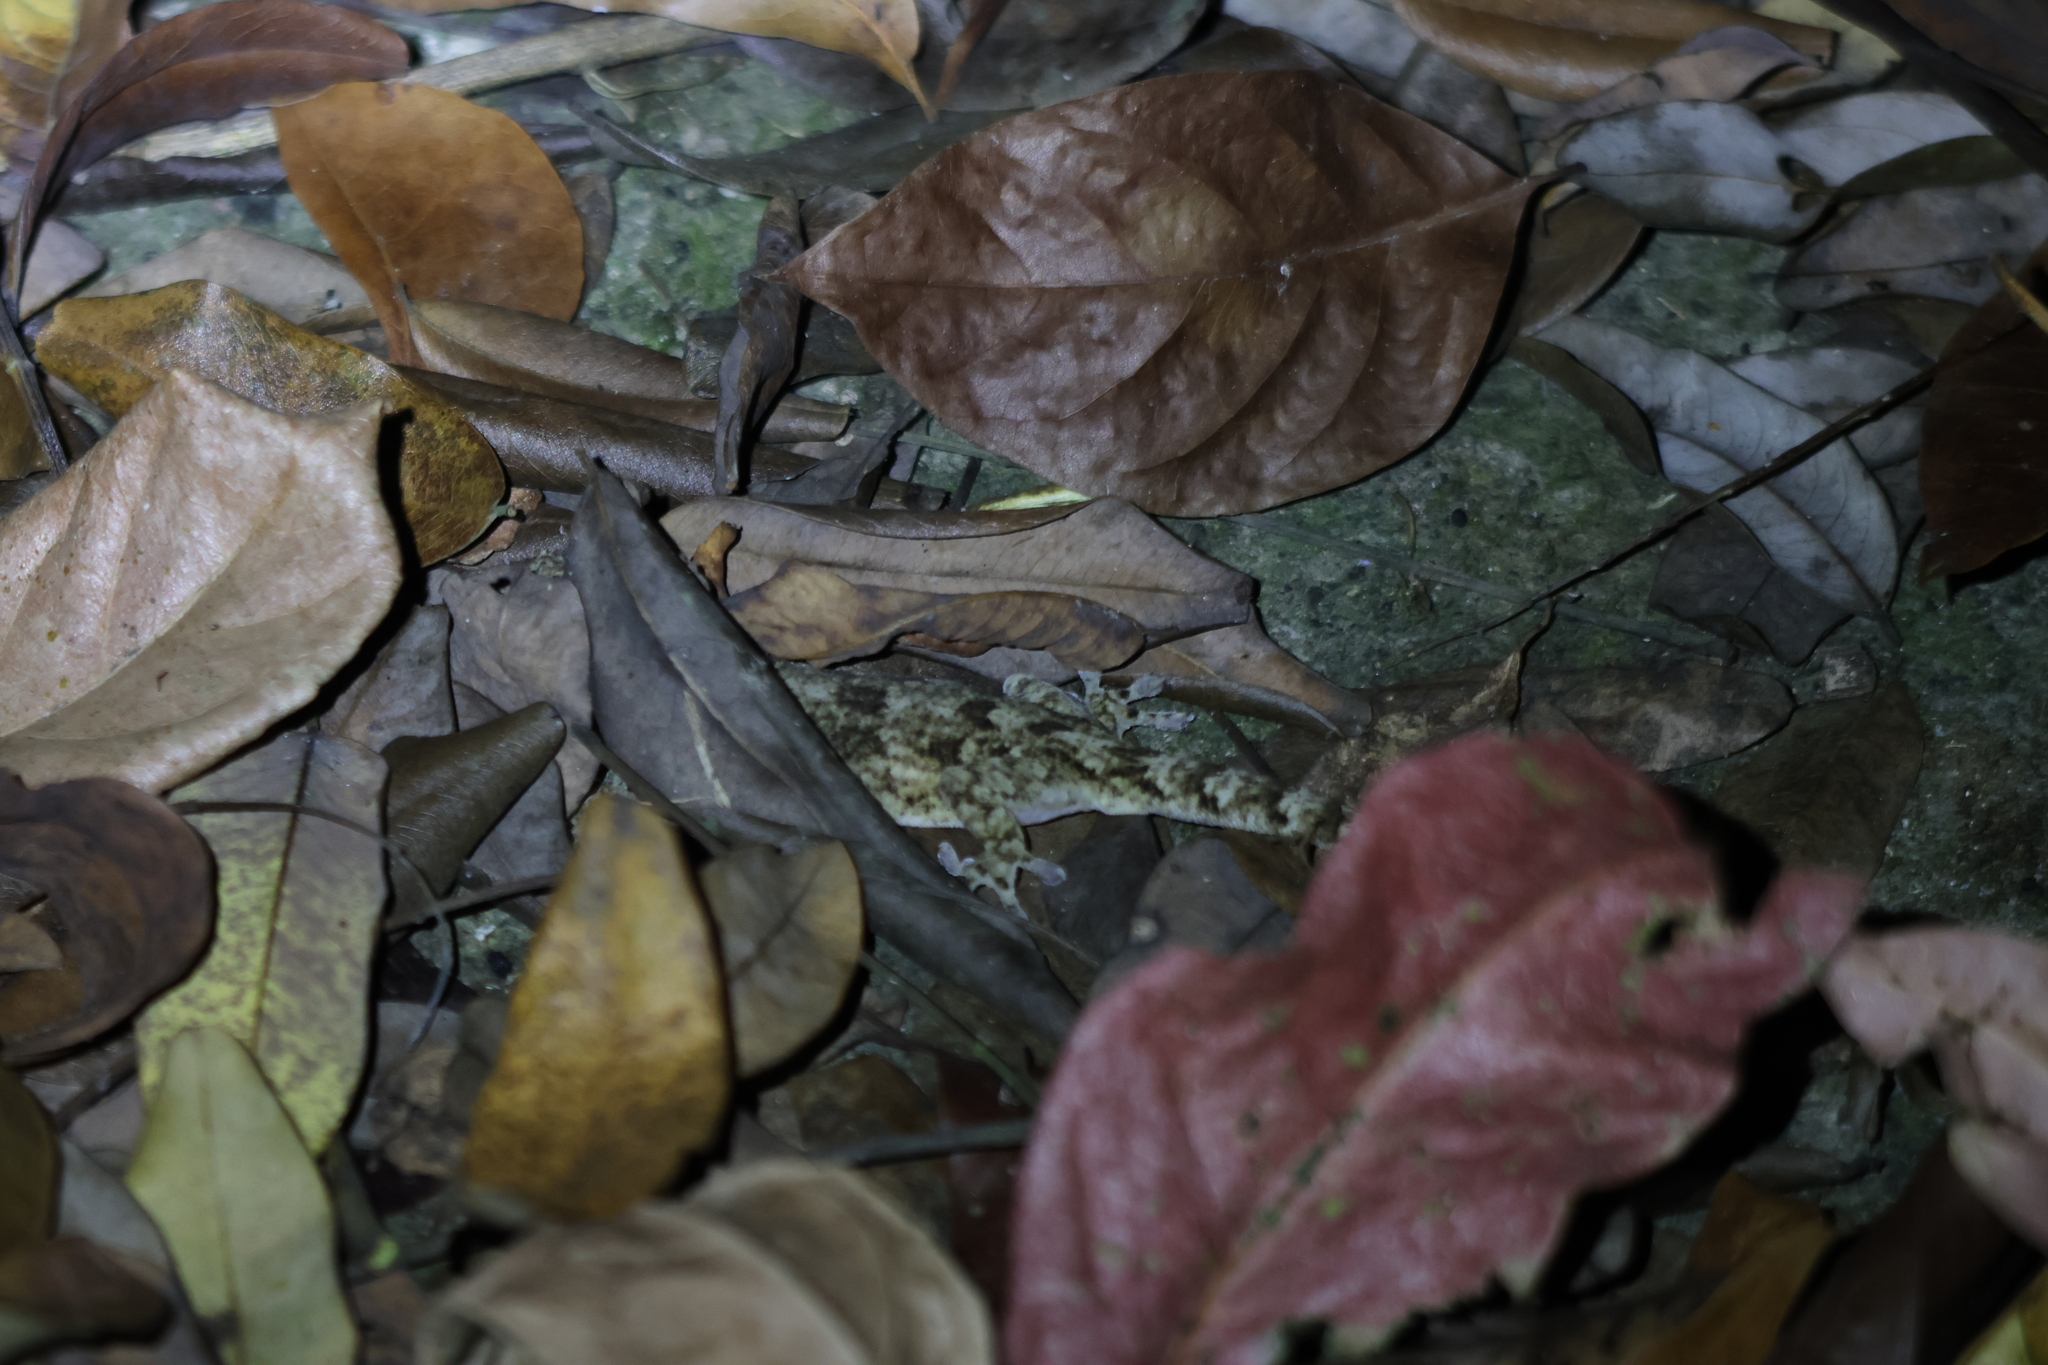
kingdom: Animalia
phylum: Chordata
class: Squamata
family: Gekkonidae
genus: Gekko
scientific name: Gekko hokouensis
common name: Kwangsi gecko
